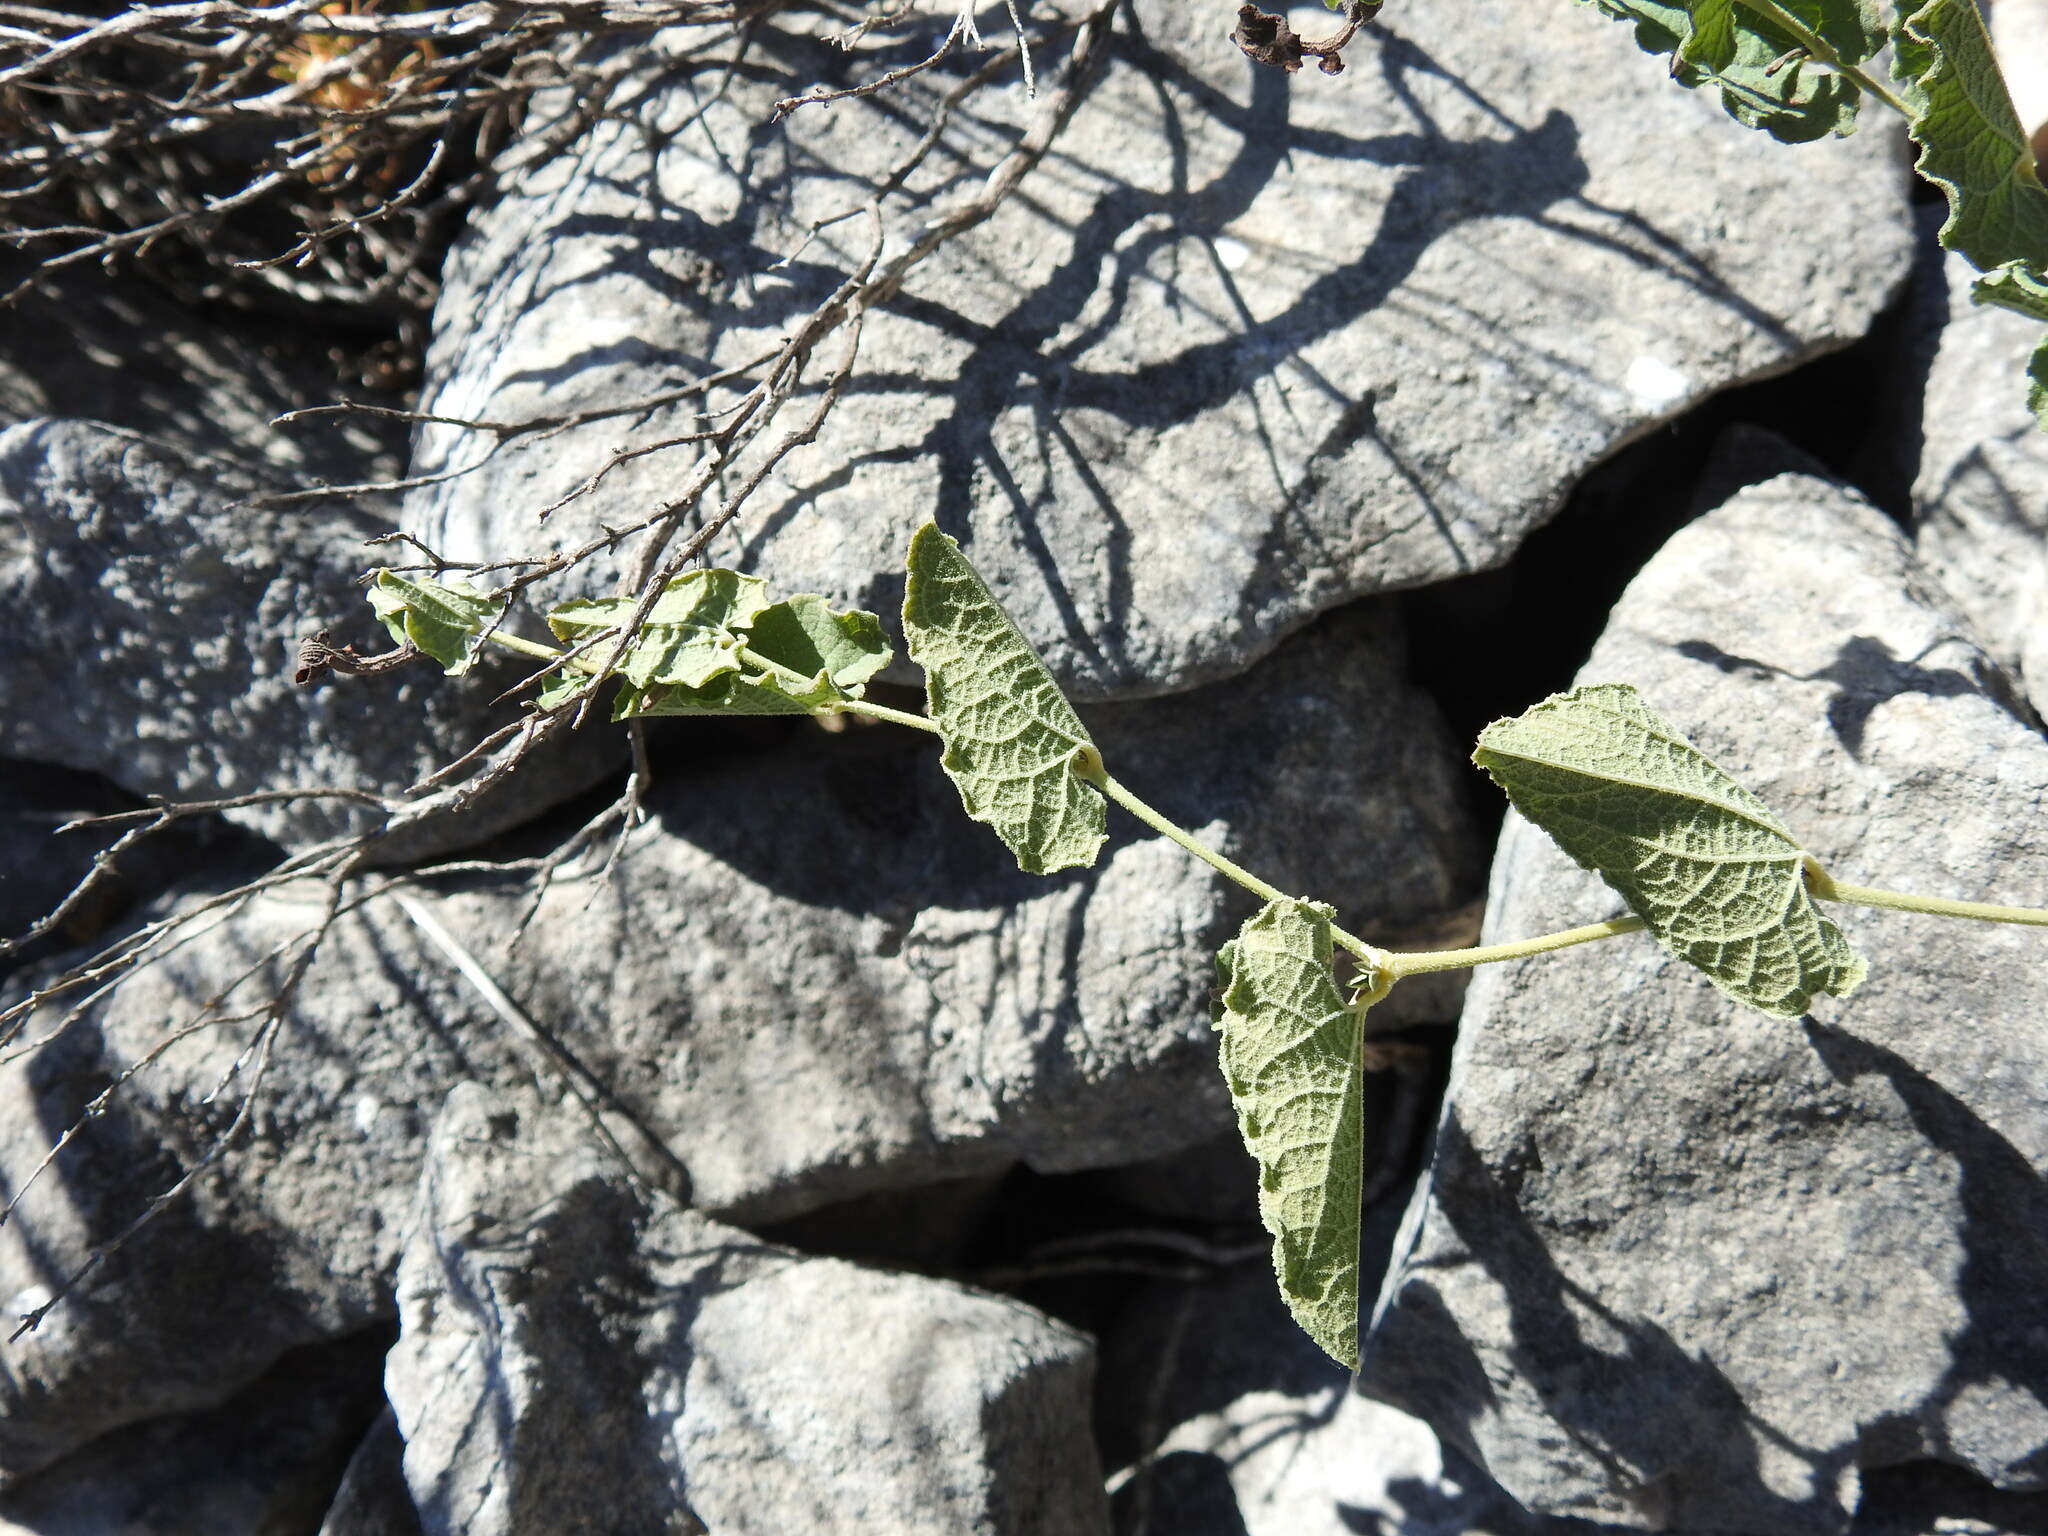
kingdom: Plantae
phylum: Tracheophyta
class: Magnoliopsida
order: Piperales
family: Aristolochiaceae
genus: Aristolochia
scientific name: Aristolochia pistolochia
